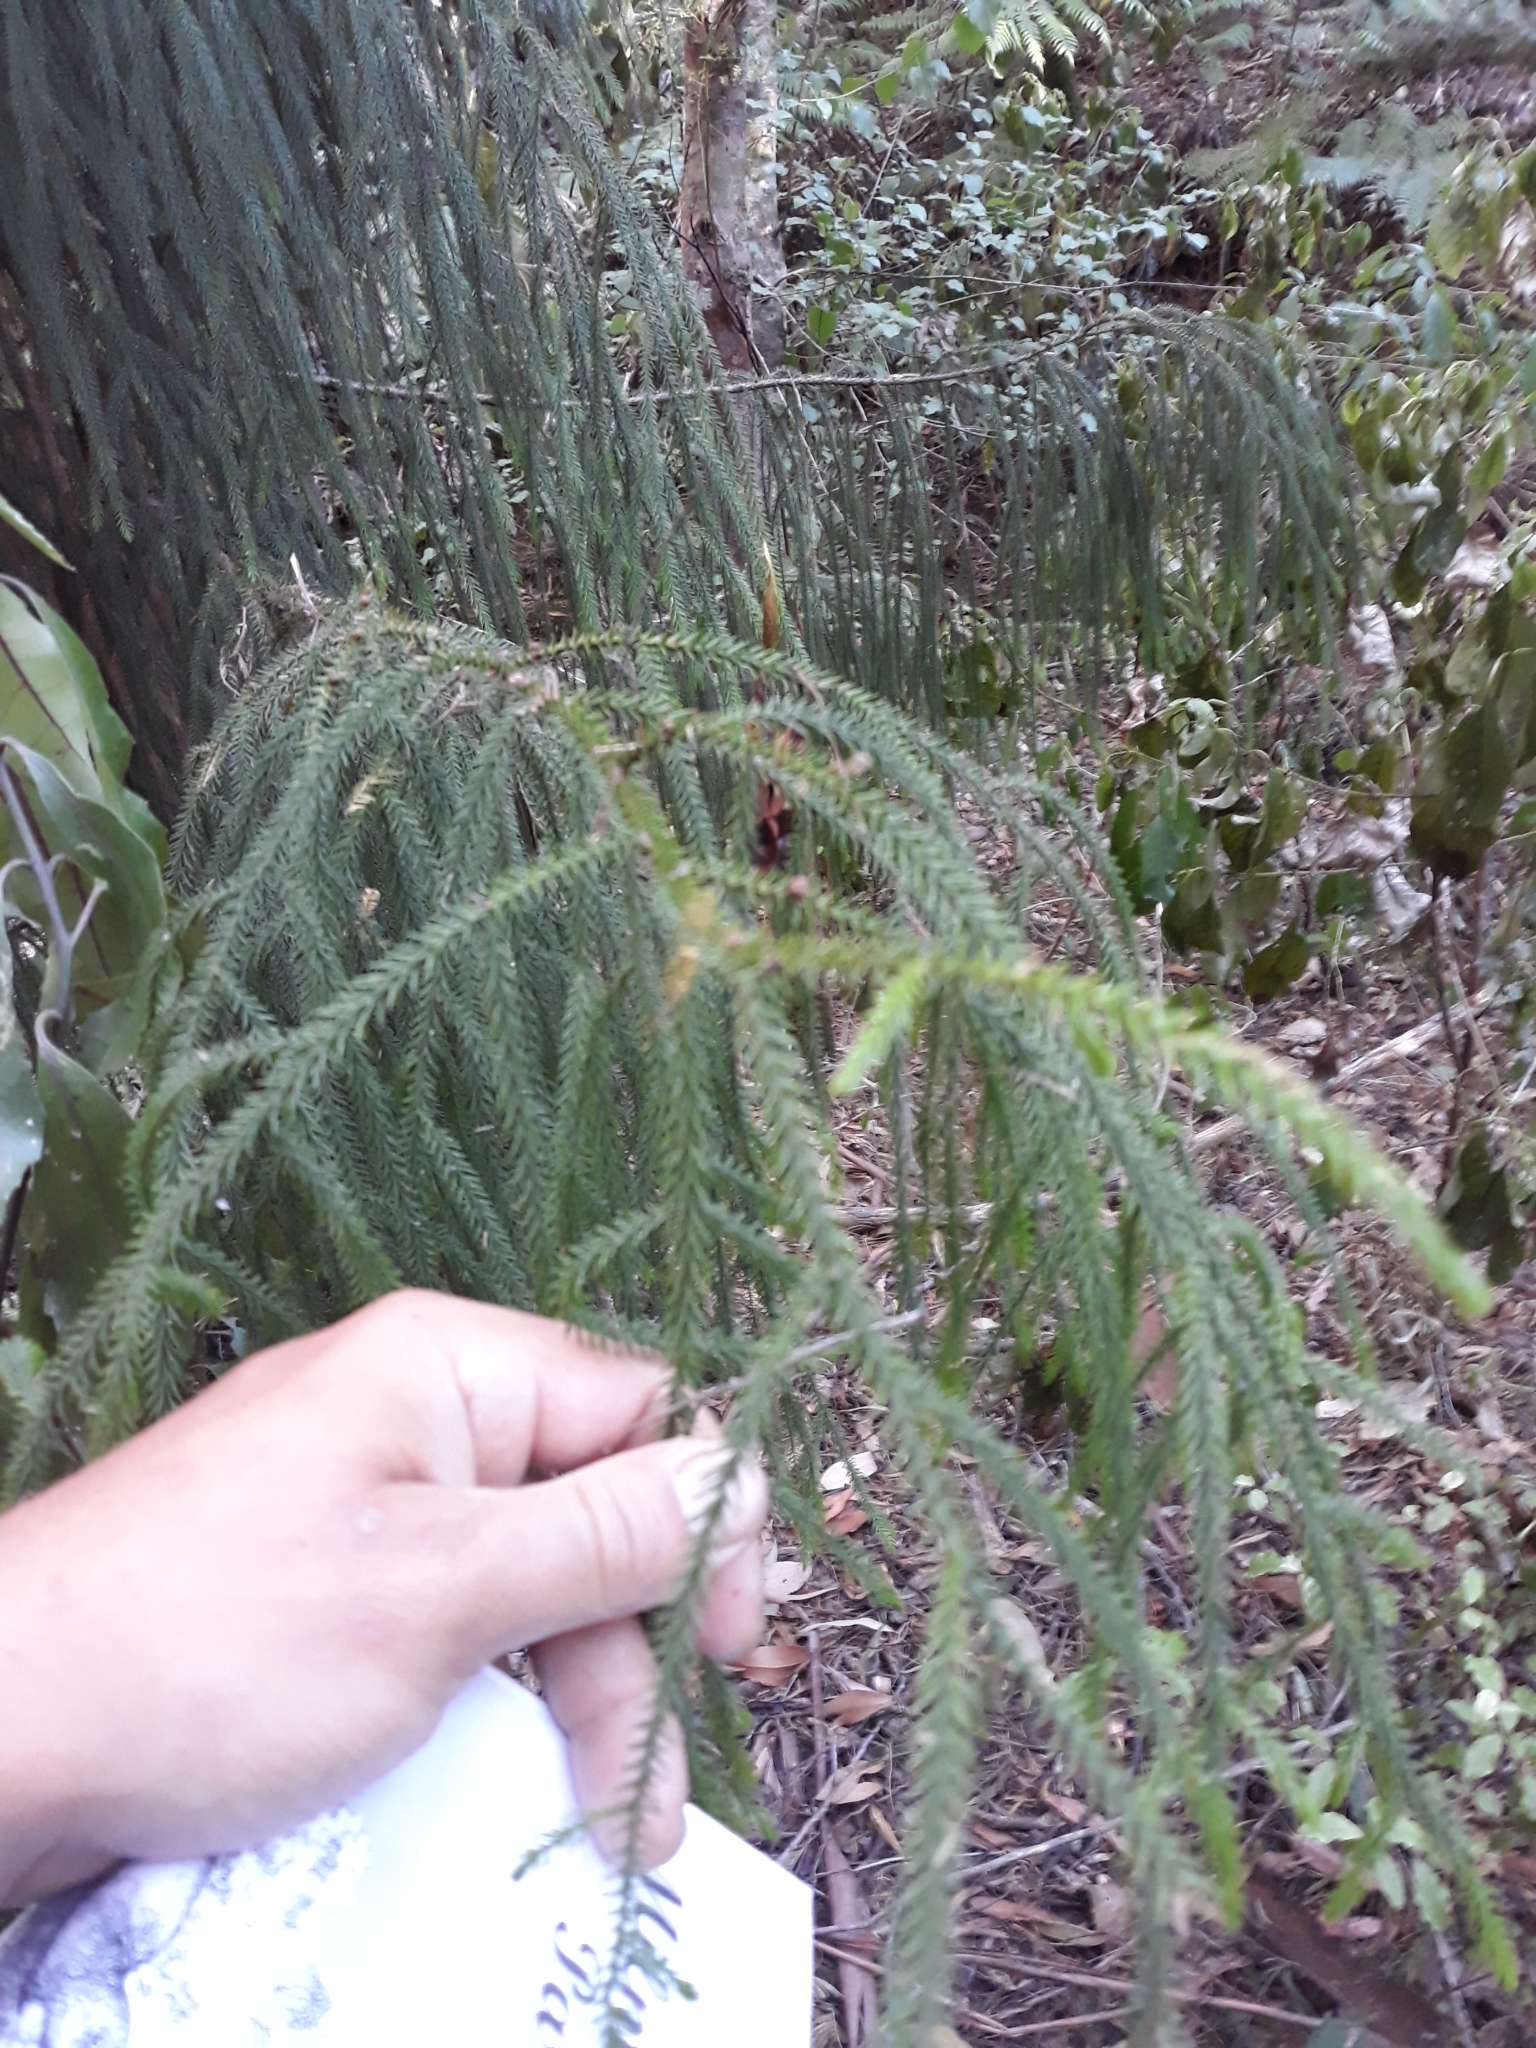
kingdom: Plantae
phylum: Tracheophyta
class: Pinopsida
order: Pinales
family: Podocarpaceae
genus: Dacrydium
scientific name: Dacrydium cupressinum
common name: Red pine
